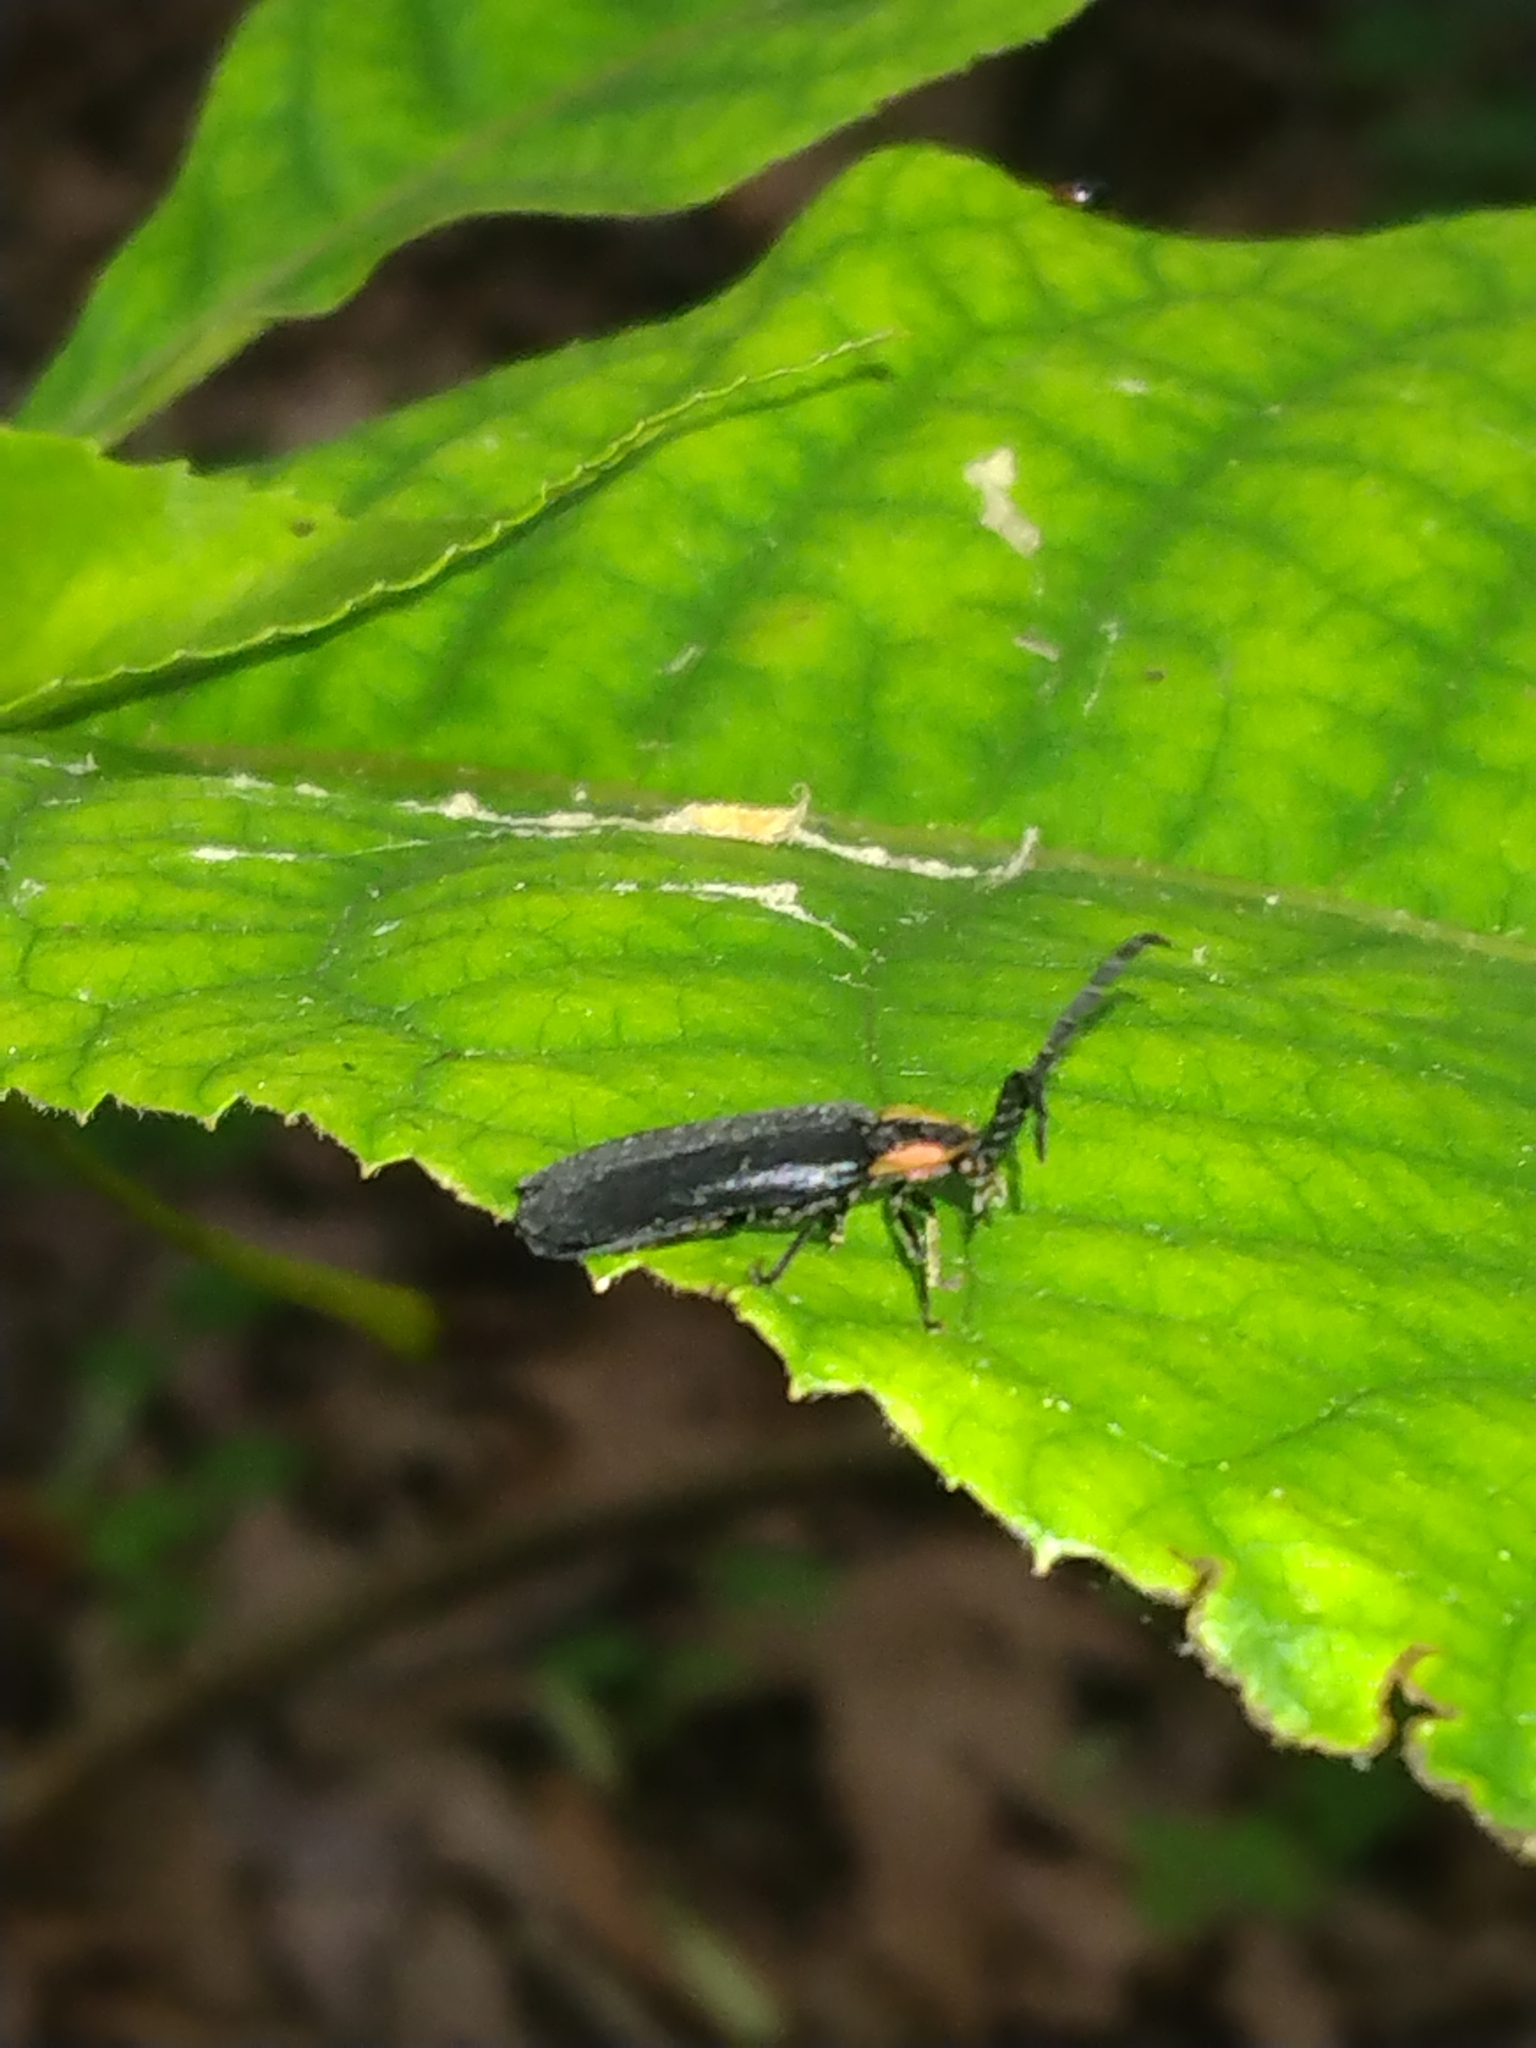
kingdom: Animalia
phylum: Arthropoda
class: Insecta
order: Coleoptera
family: Lampyridae
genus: Lucidota
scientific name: Lucidota atra
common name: Black firefly
